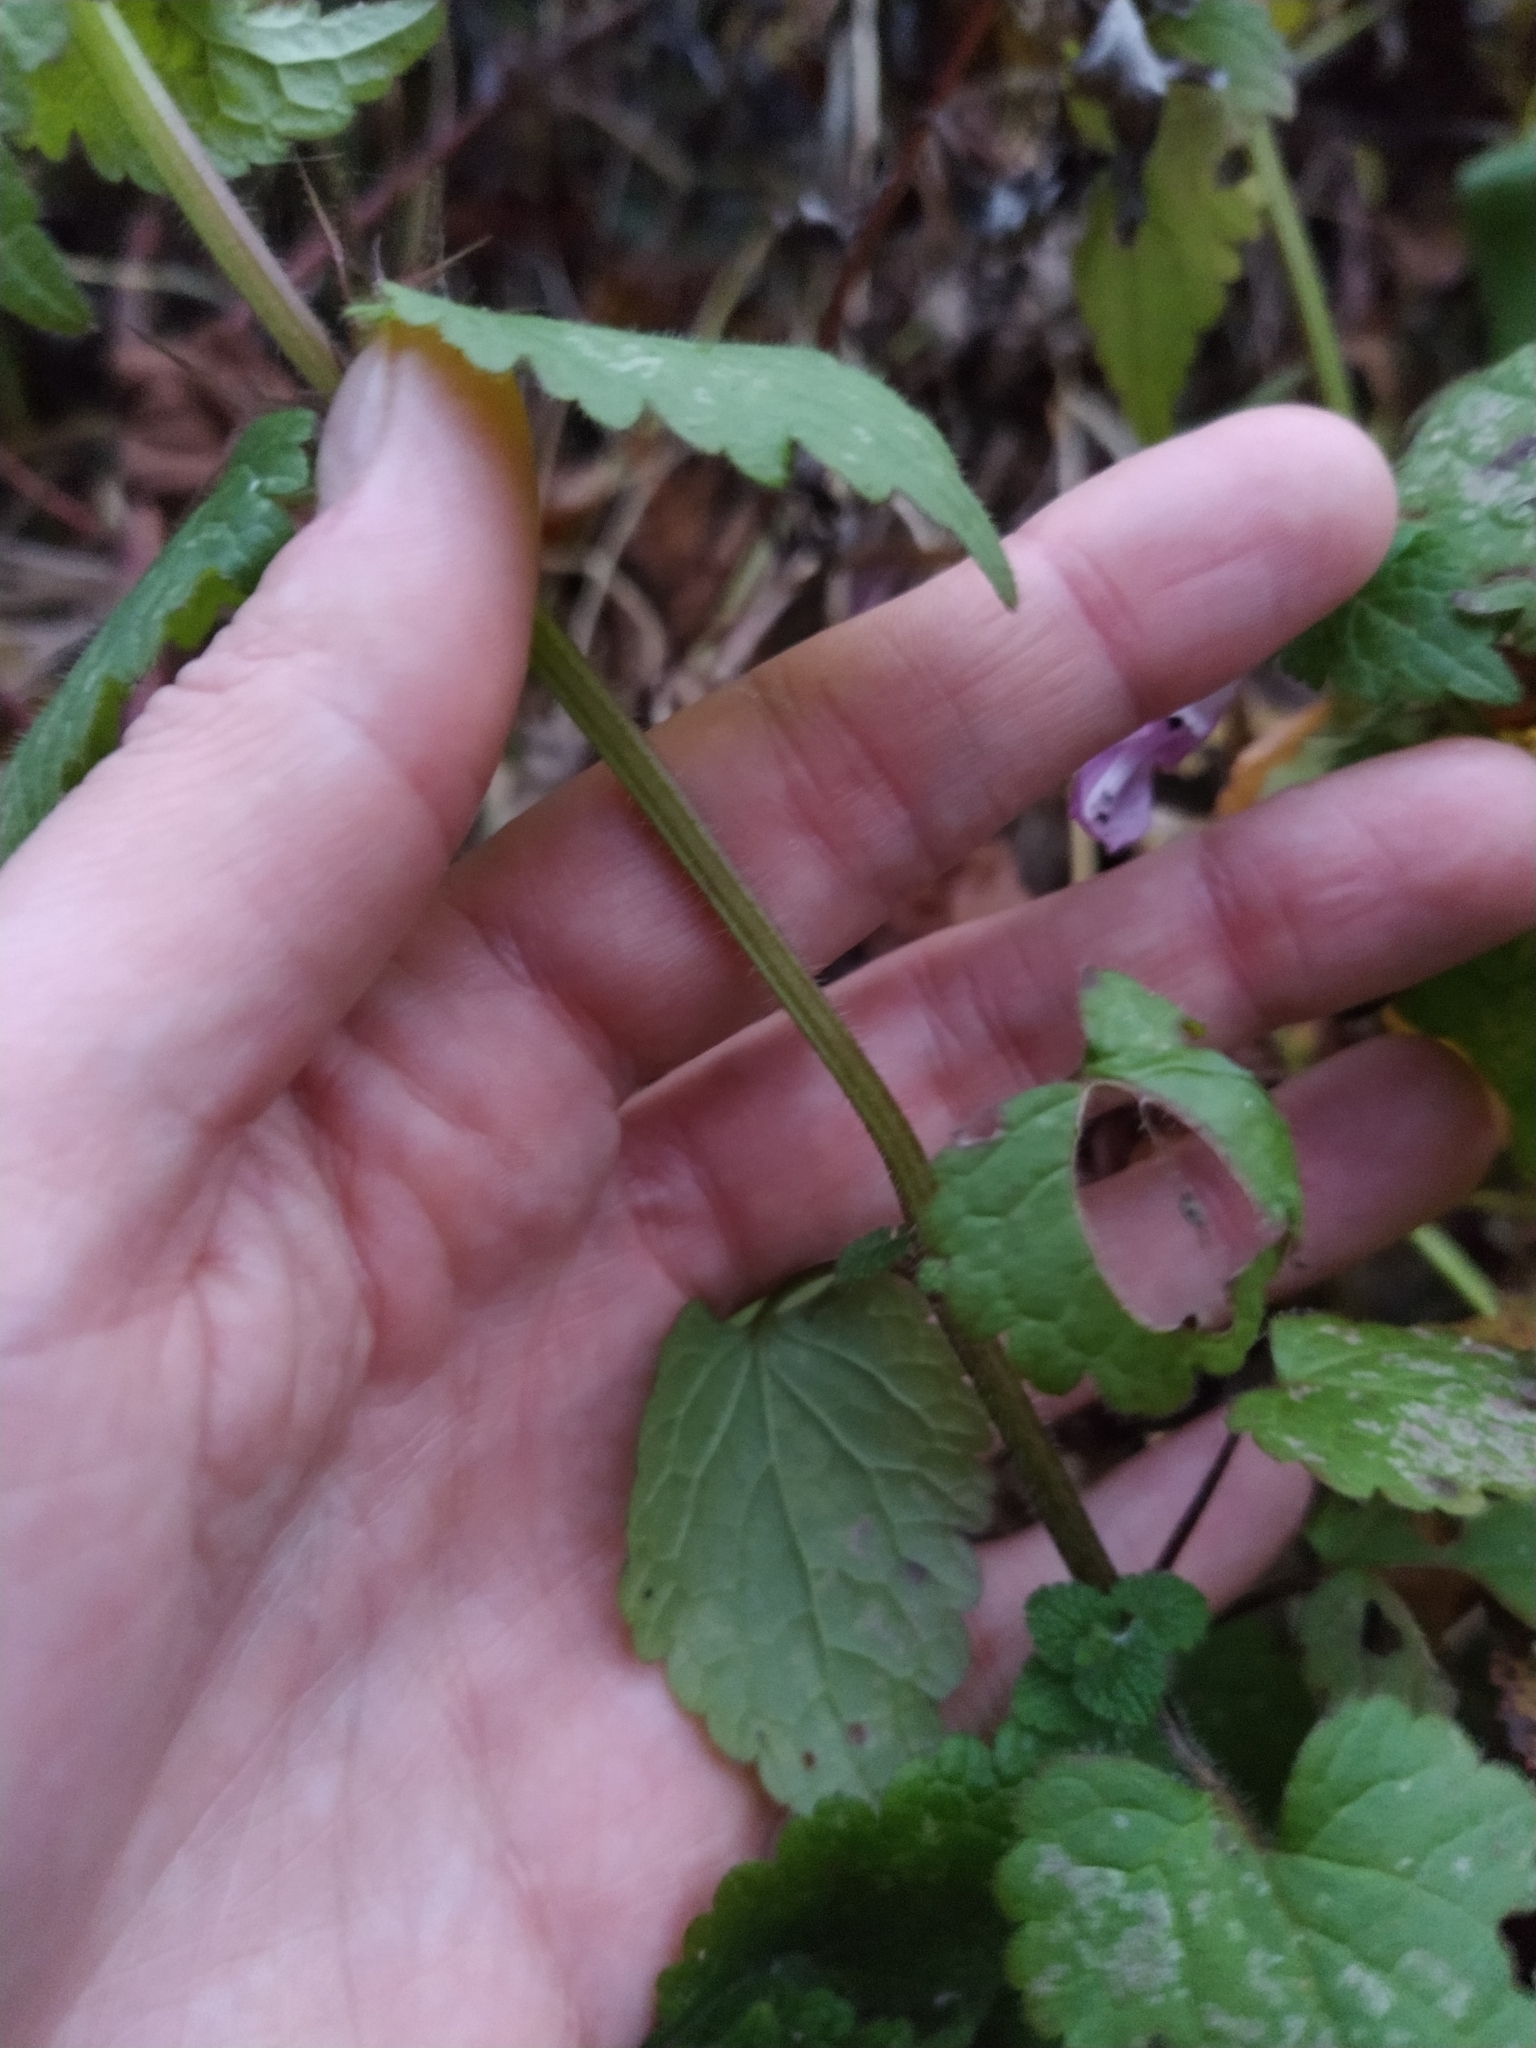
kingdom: Plantae
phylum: Tracheophyta
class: Magnoliopsida
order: Lamiales
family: Lamiaceae
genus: Lamium
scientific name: Lamium maculatum
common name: Spotted dead-nettle
